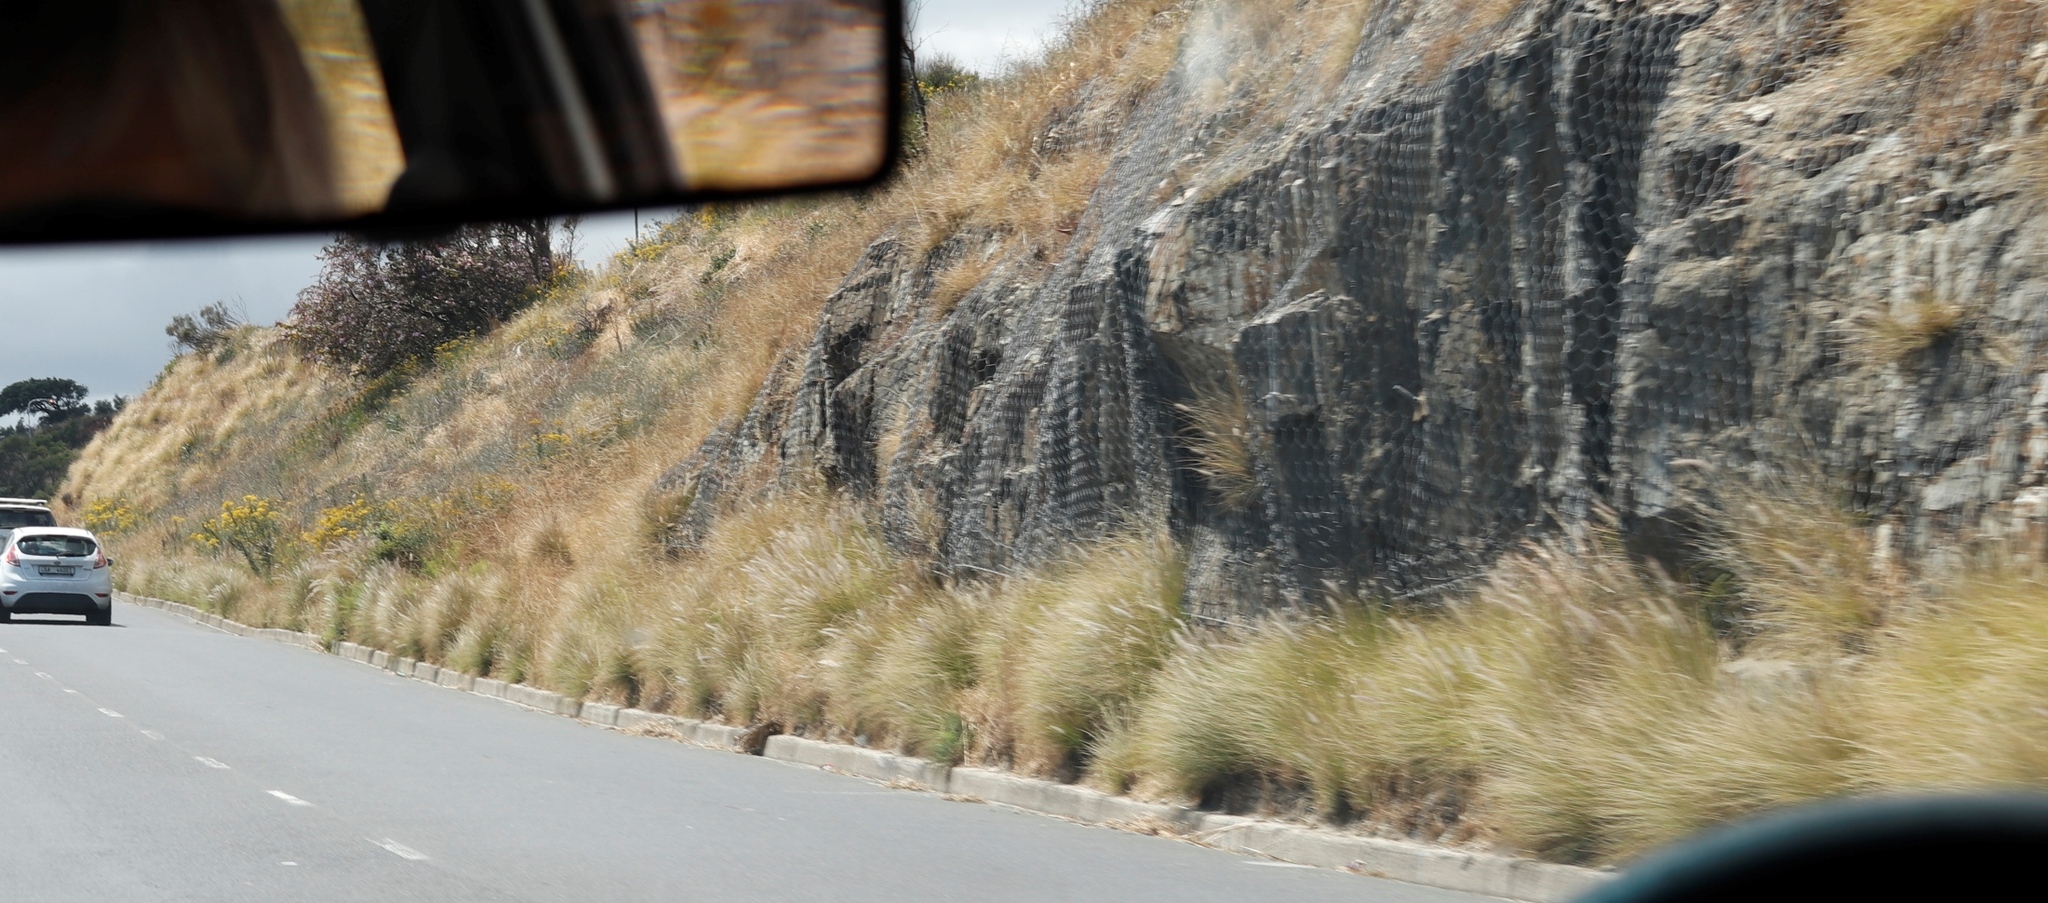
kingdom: Plantae
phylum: Tracheophyta
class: Liliopsida
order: Poales
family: Poaceae
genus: Cenchrus
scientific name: Cenchrus setaceus
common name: Crimson fountaingrass
